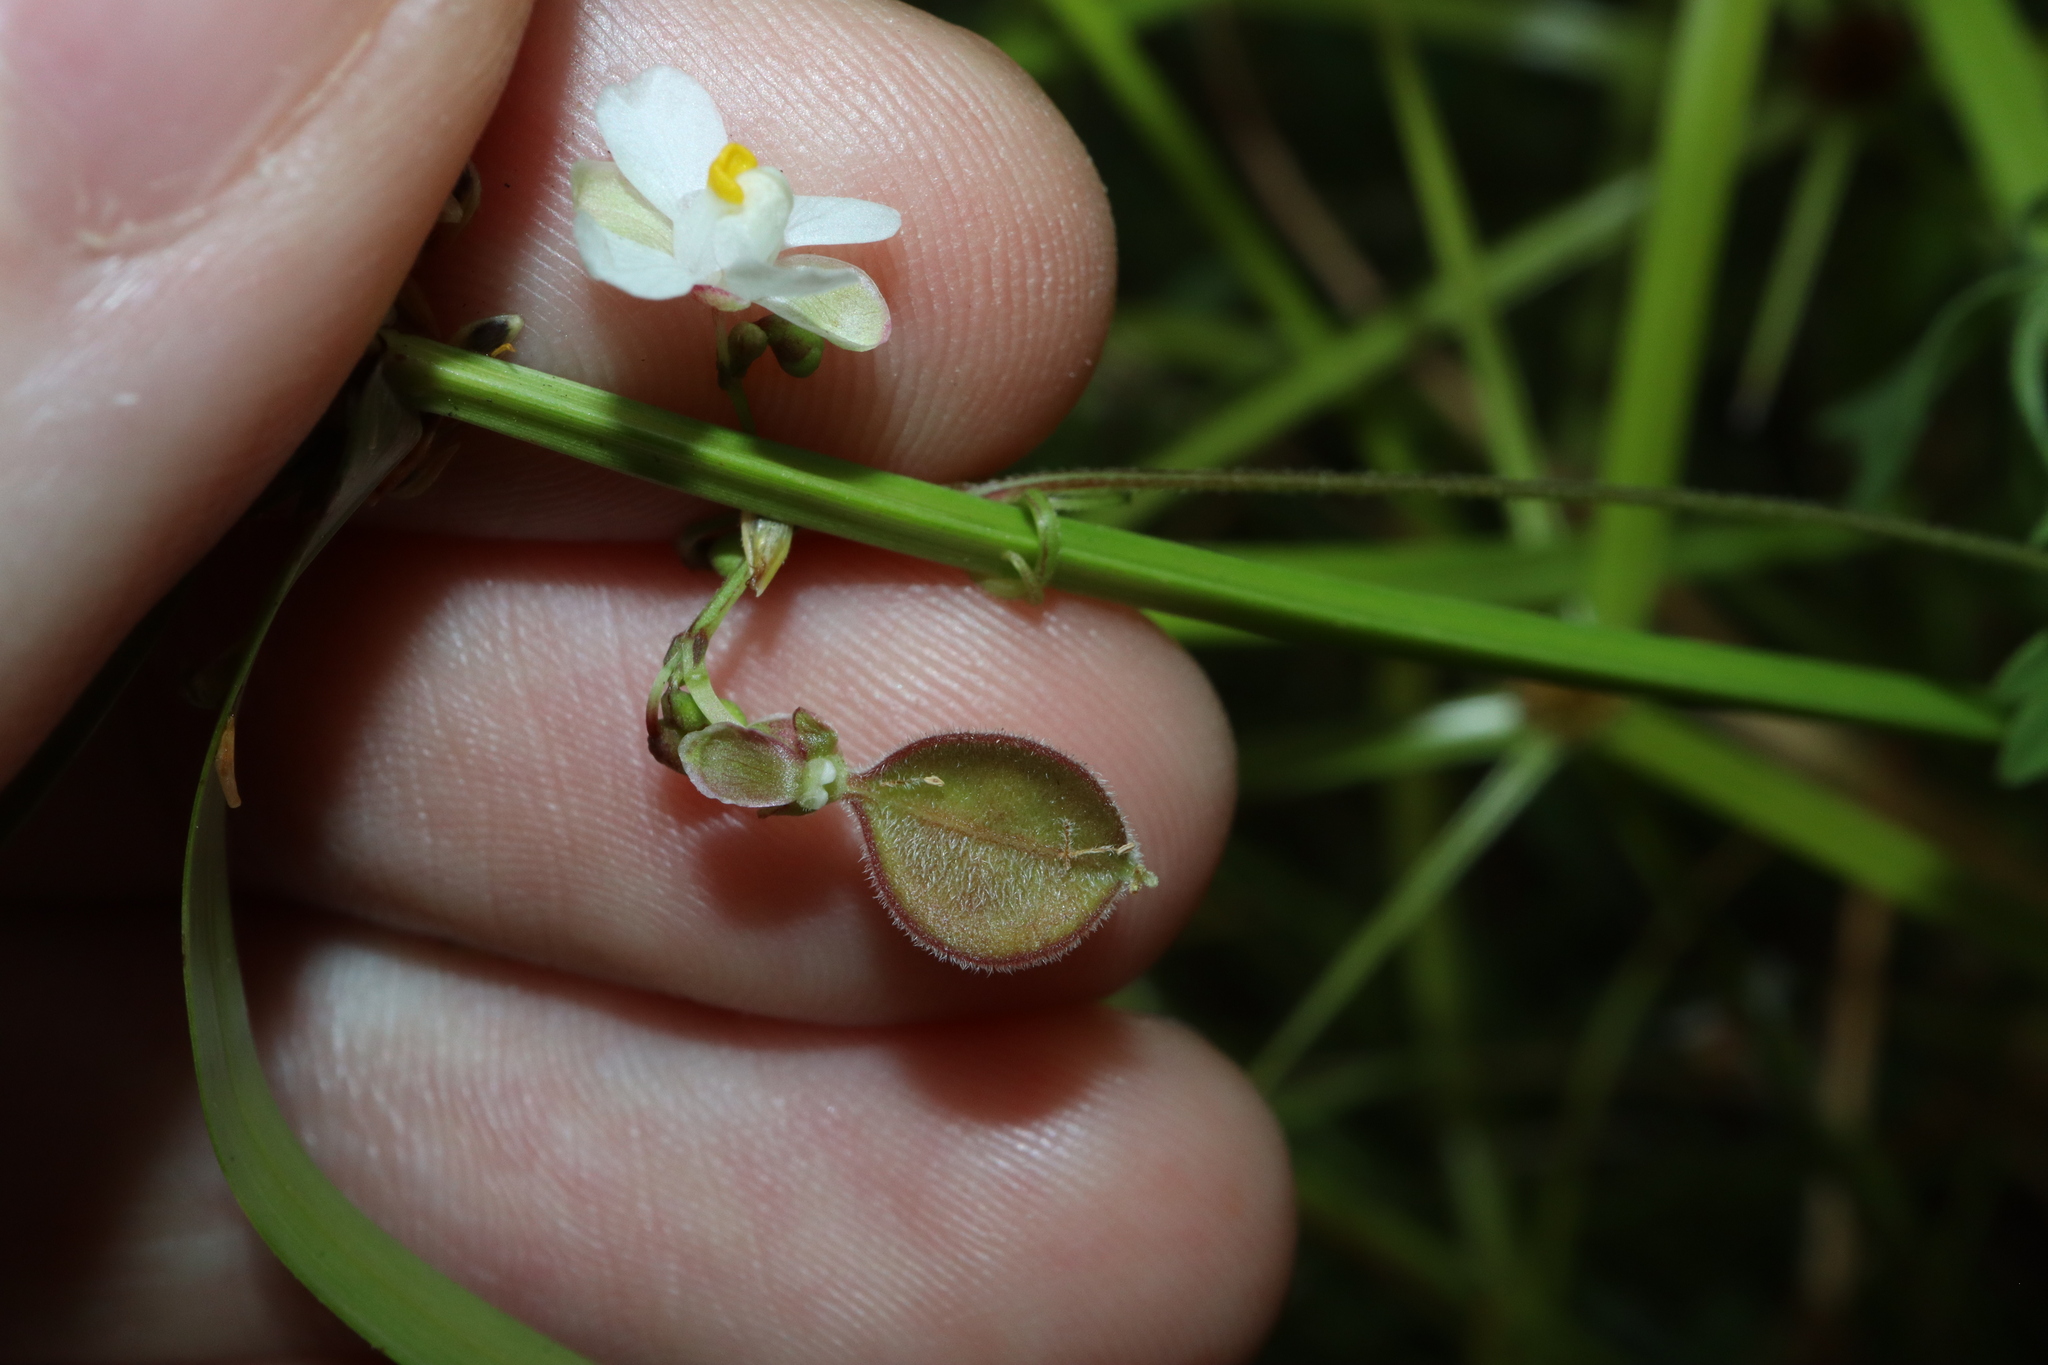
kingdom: Plantae
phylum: Tracheophyta
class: Magnoliopsida
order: Sapindales
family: Sapindaceae
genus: Cardiospermum
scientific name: Cardiospermum halicacabum
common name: Balloon vine
